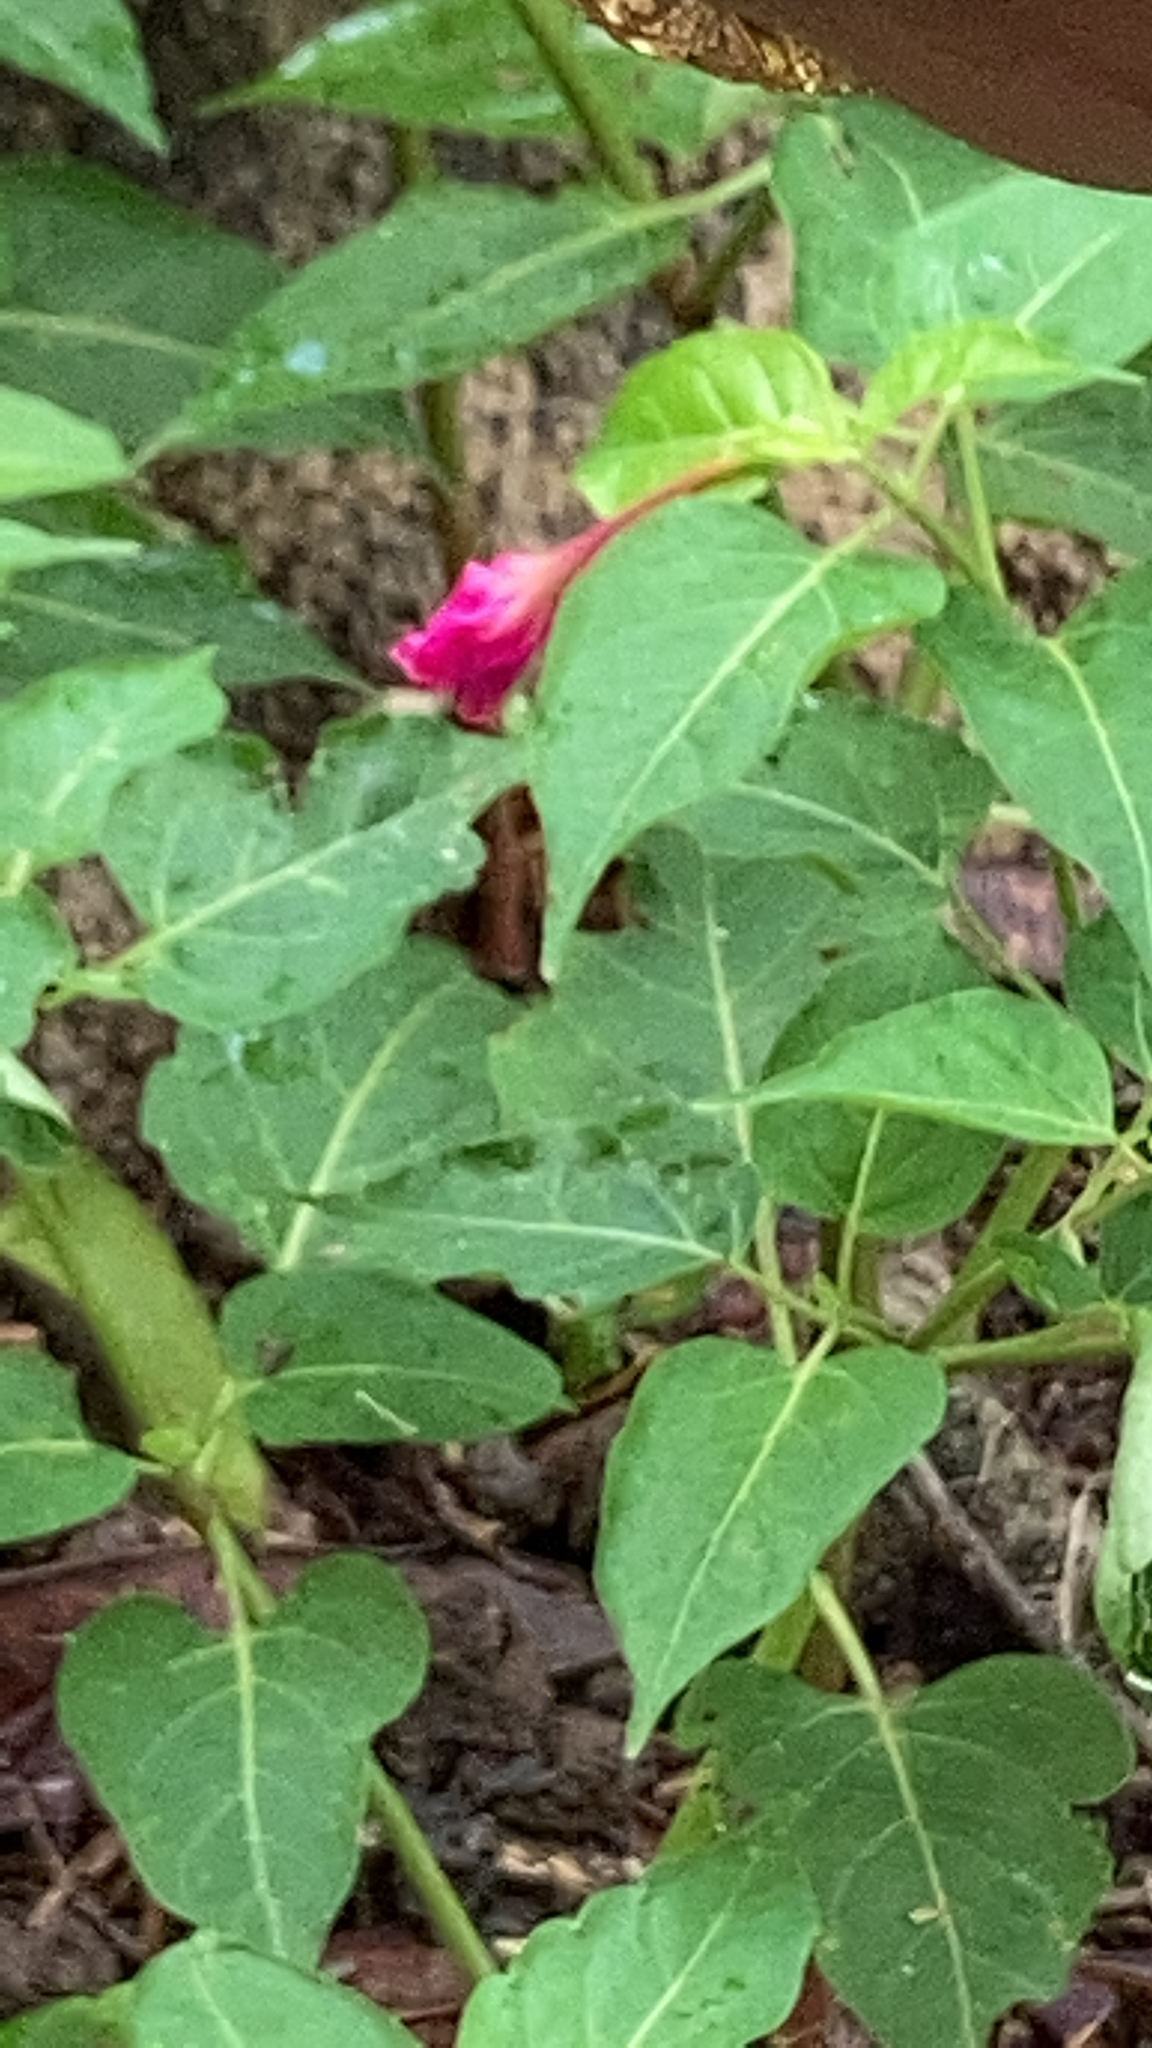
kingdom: Plantae
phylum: Tracheophyta
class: Magnoliopsida
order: Caryophyllales
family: Nyctaginaceae
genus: Mirabilis
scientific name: Mirabilis jalapa
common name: Marvel-of-peru
